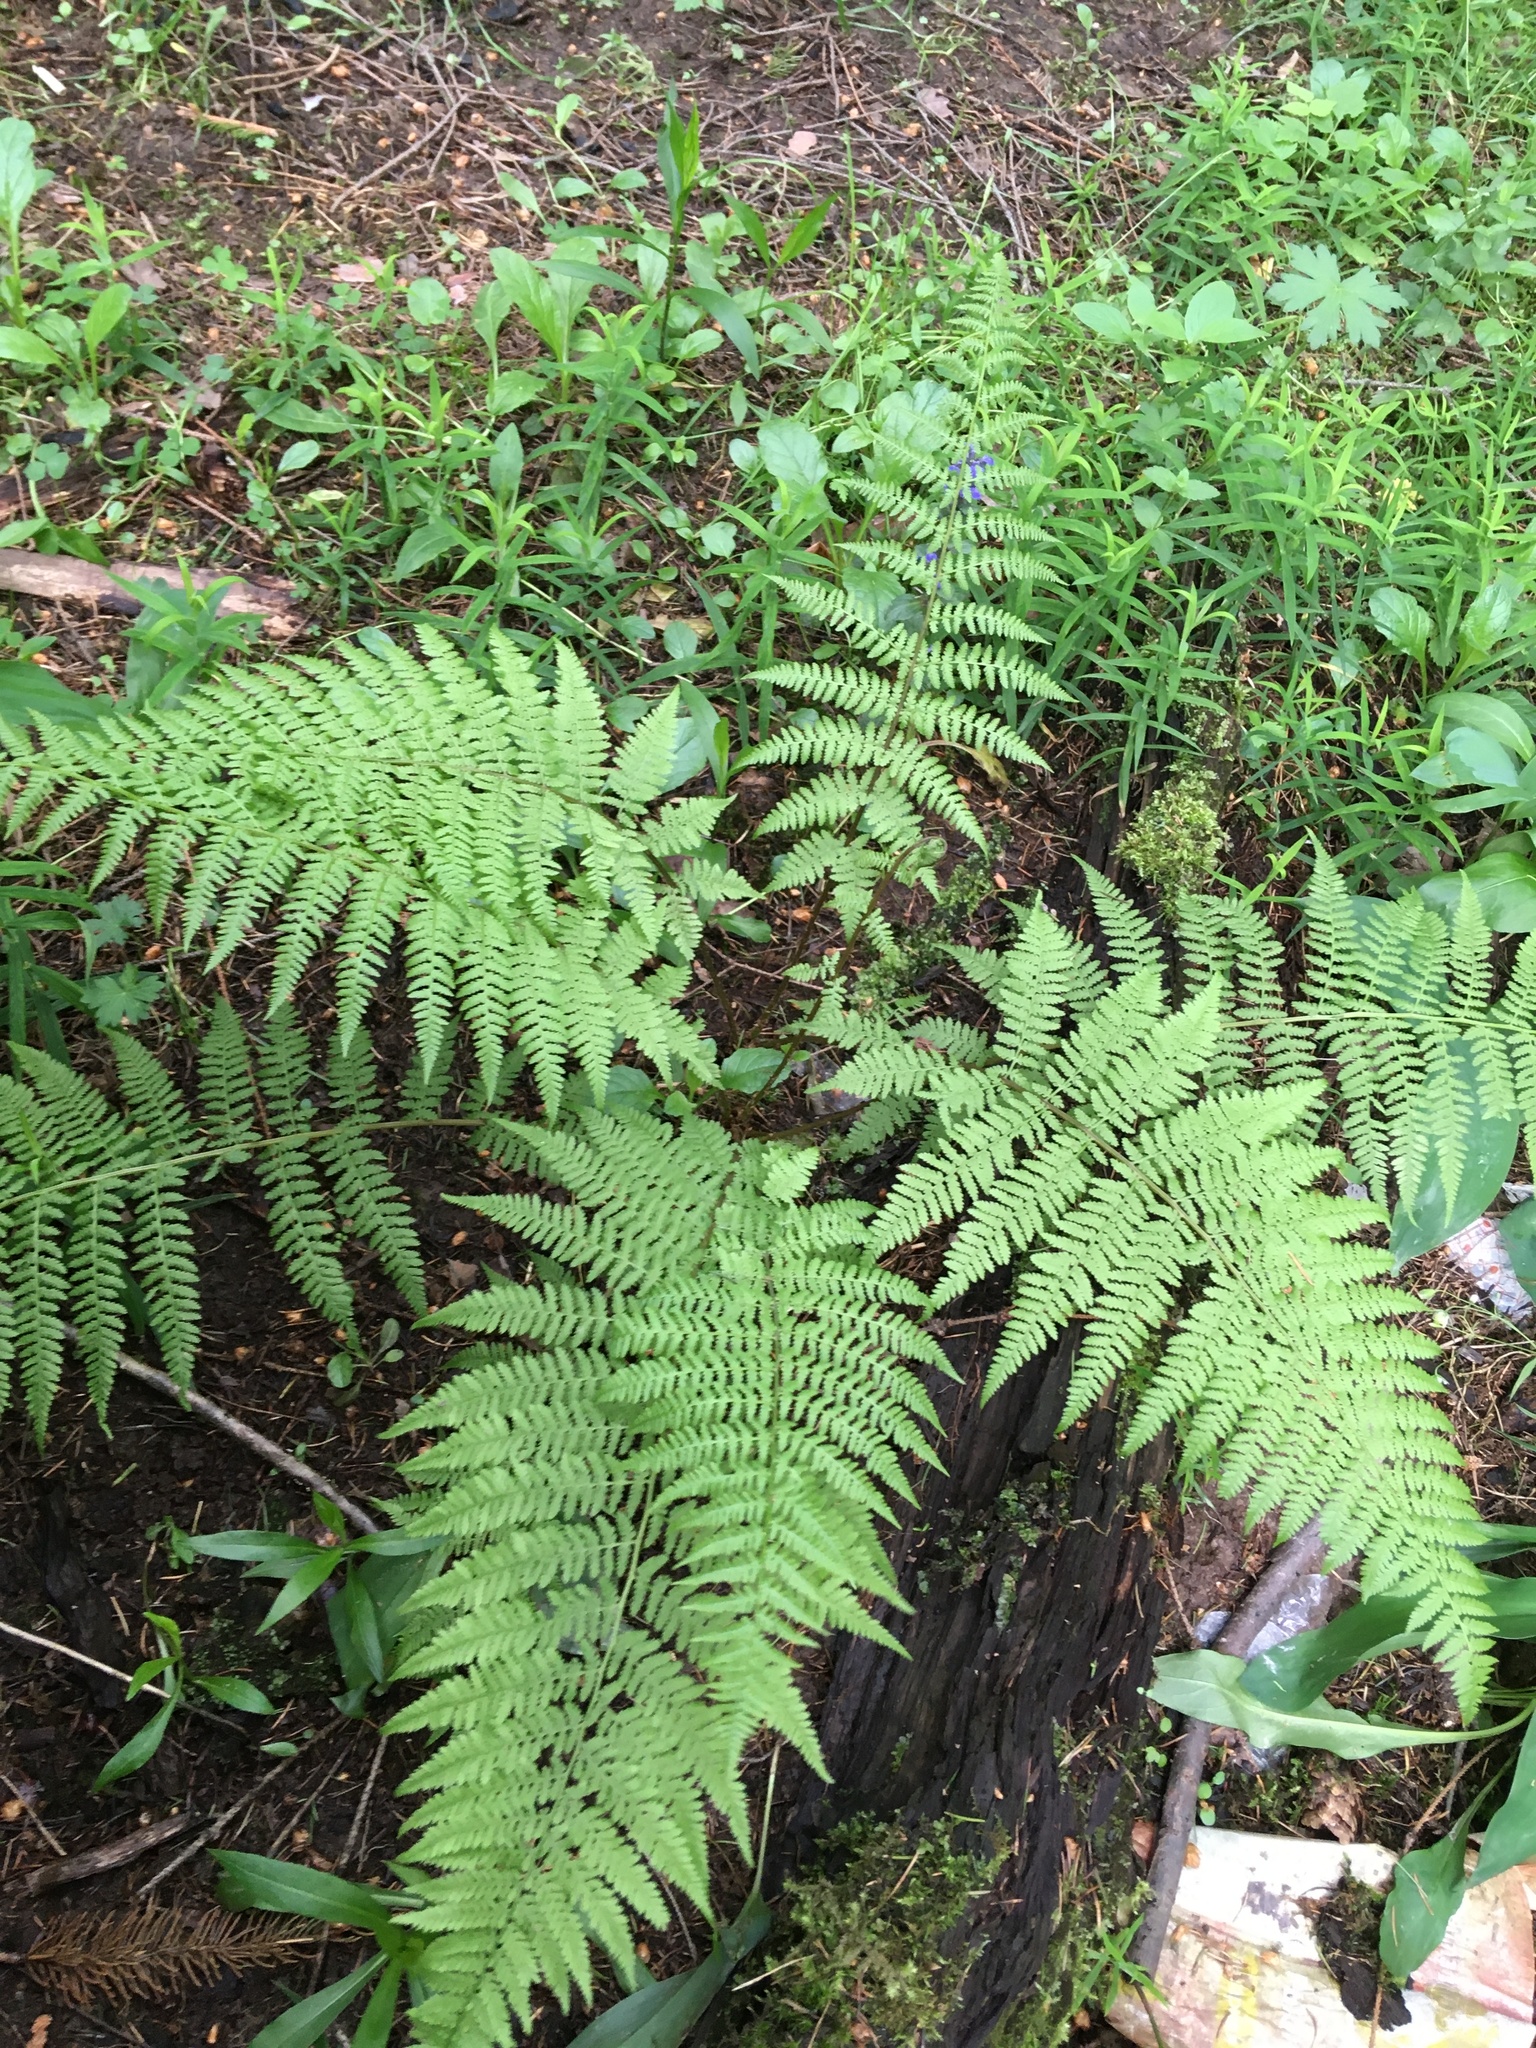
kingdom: Plantae
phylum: Tracheophyta
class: Polypodiopsida
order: Polypodiales
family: Athyriaceae
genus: Athyrium
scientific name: Athyrium filix-femina
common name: Lady fern
